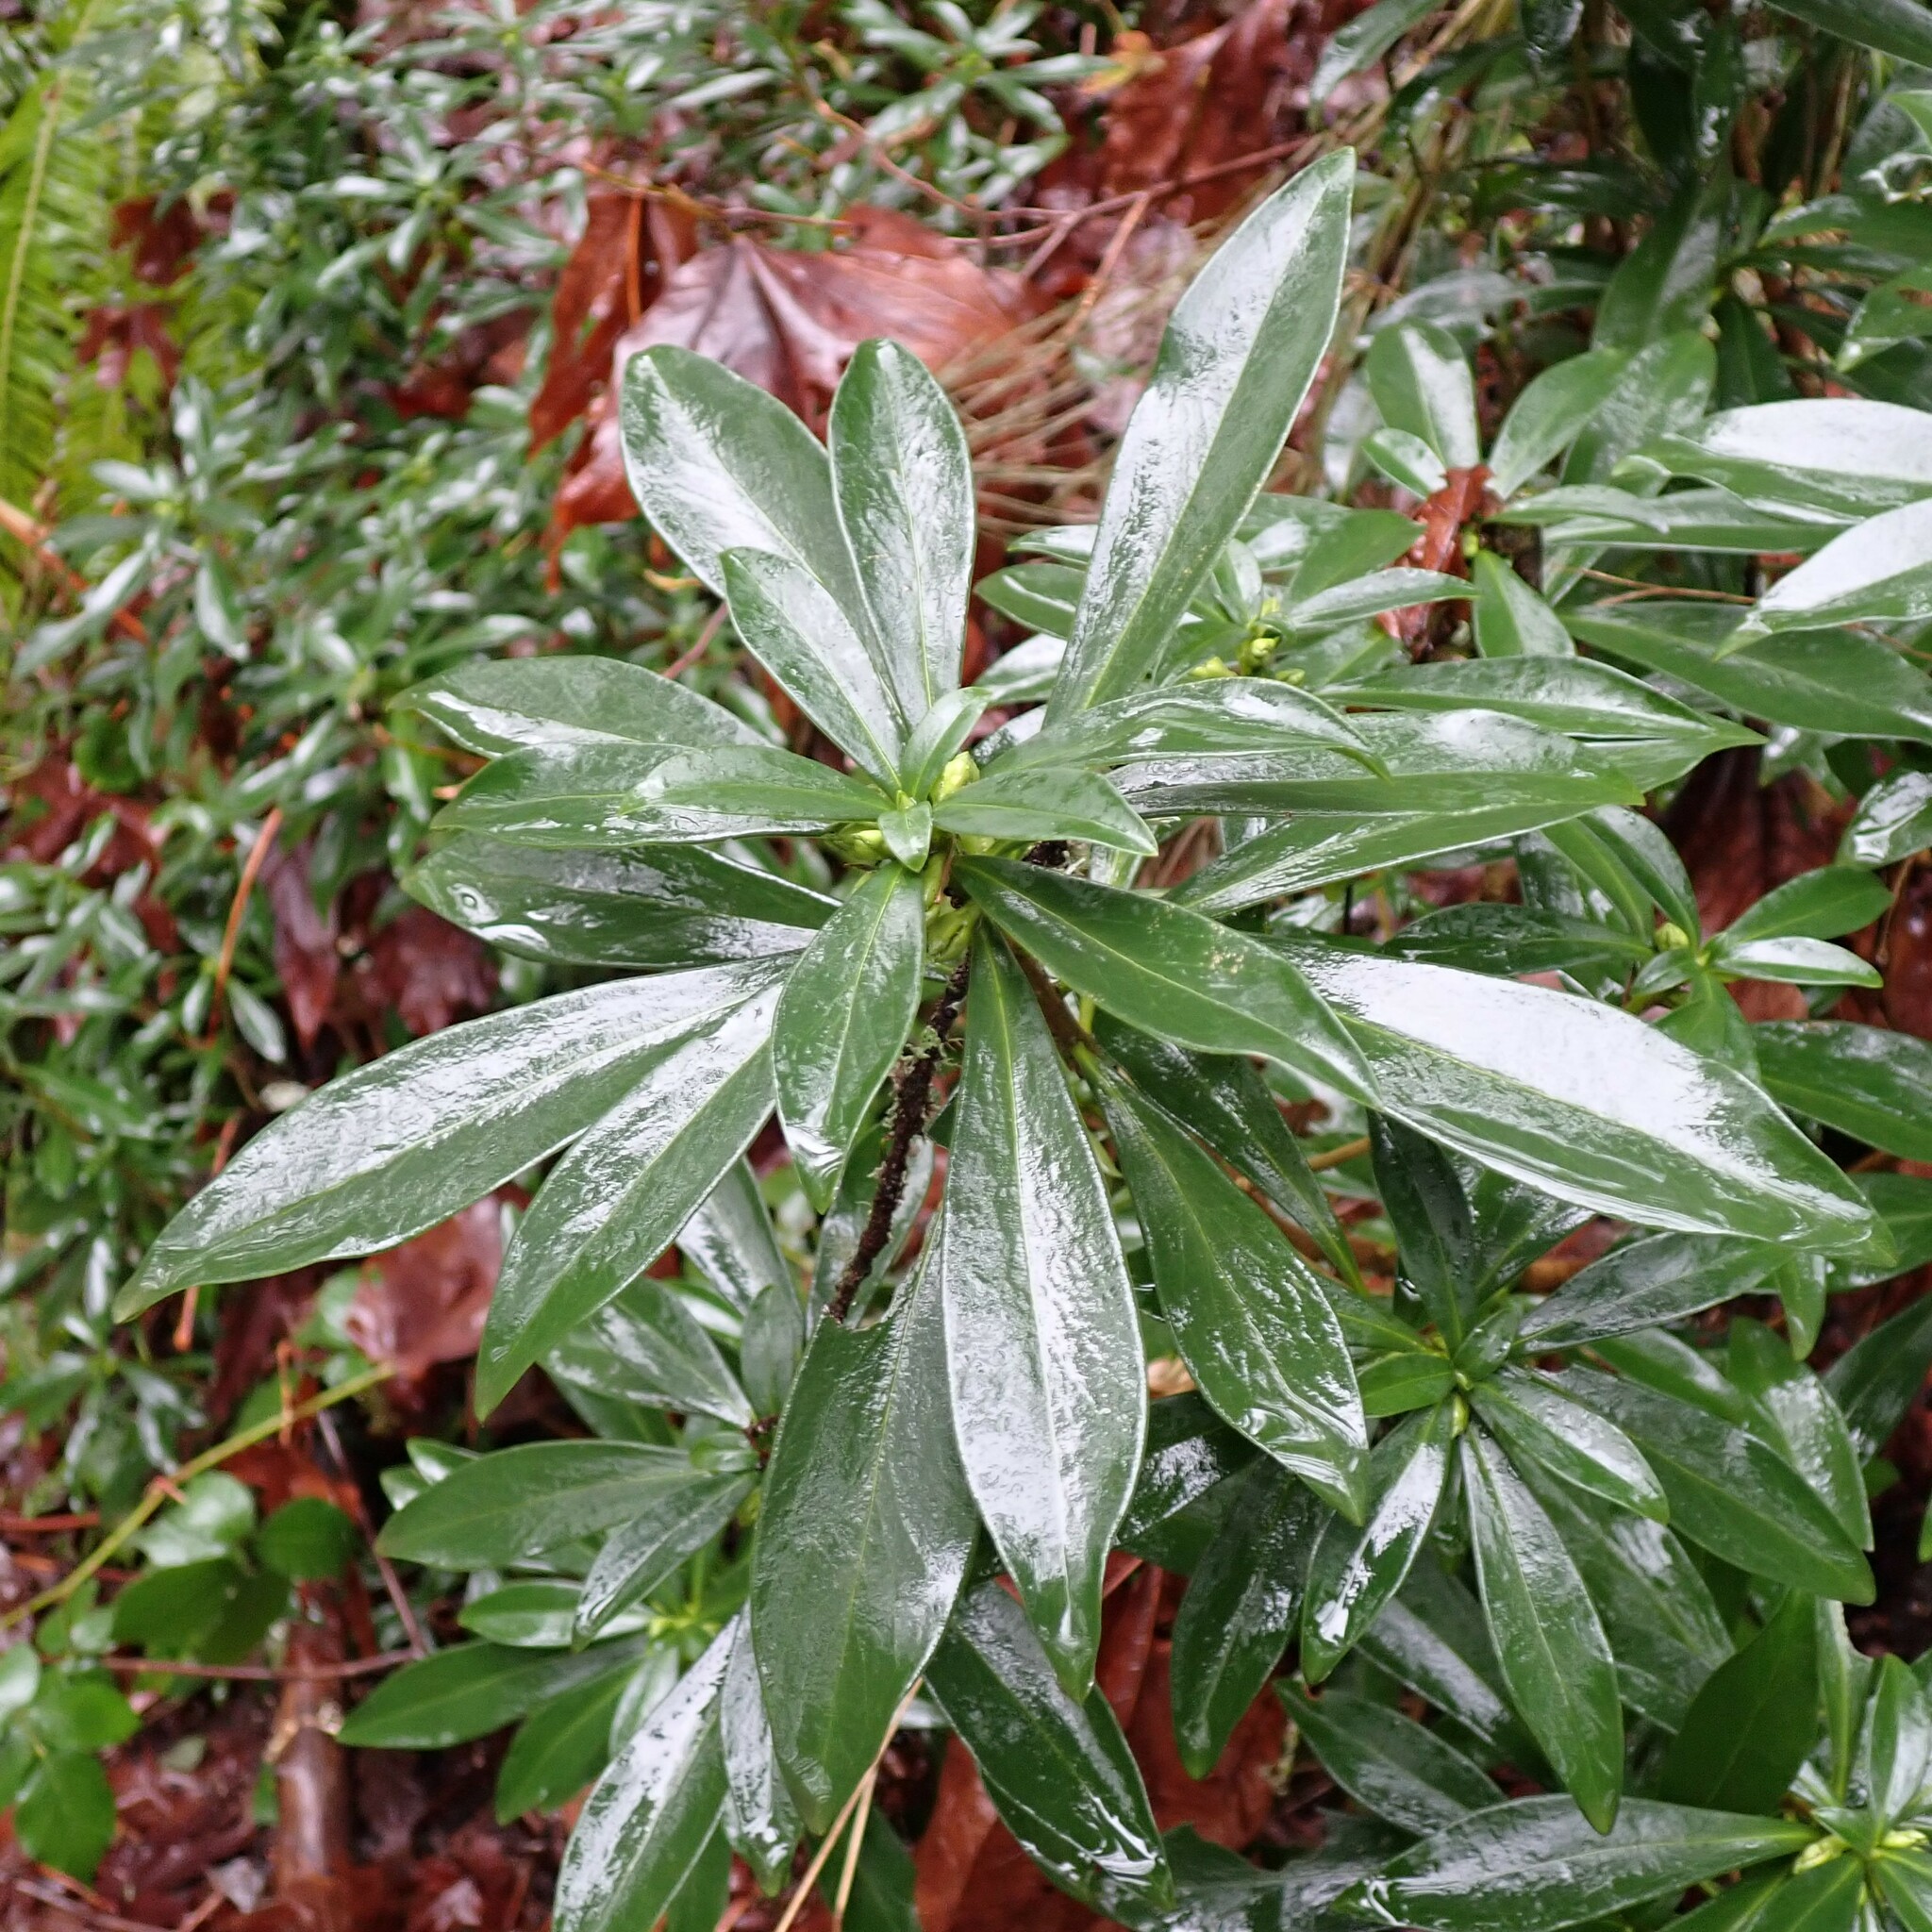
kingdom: Plantae
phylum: Tracheophyta
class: Magnoliopsida
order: Malvales
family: Thymelaeaceae
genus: Daphne
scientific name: Daphne laureola
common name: Spurge-laurel
